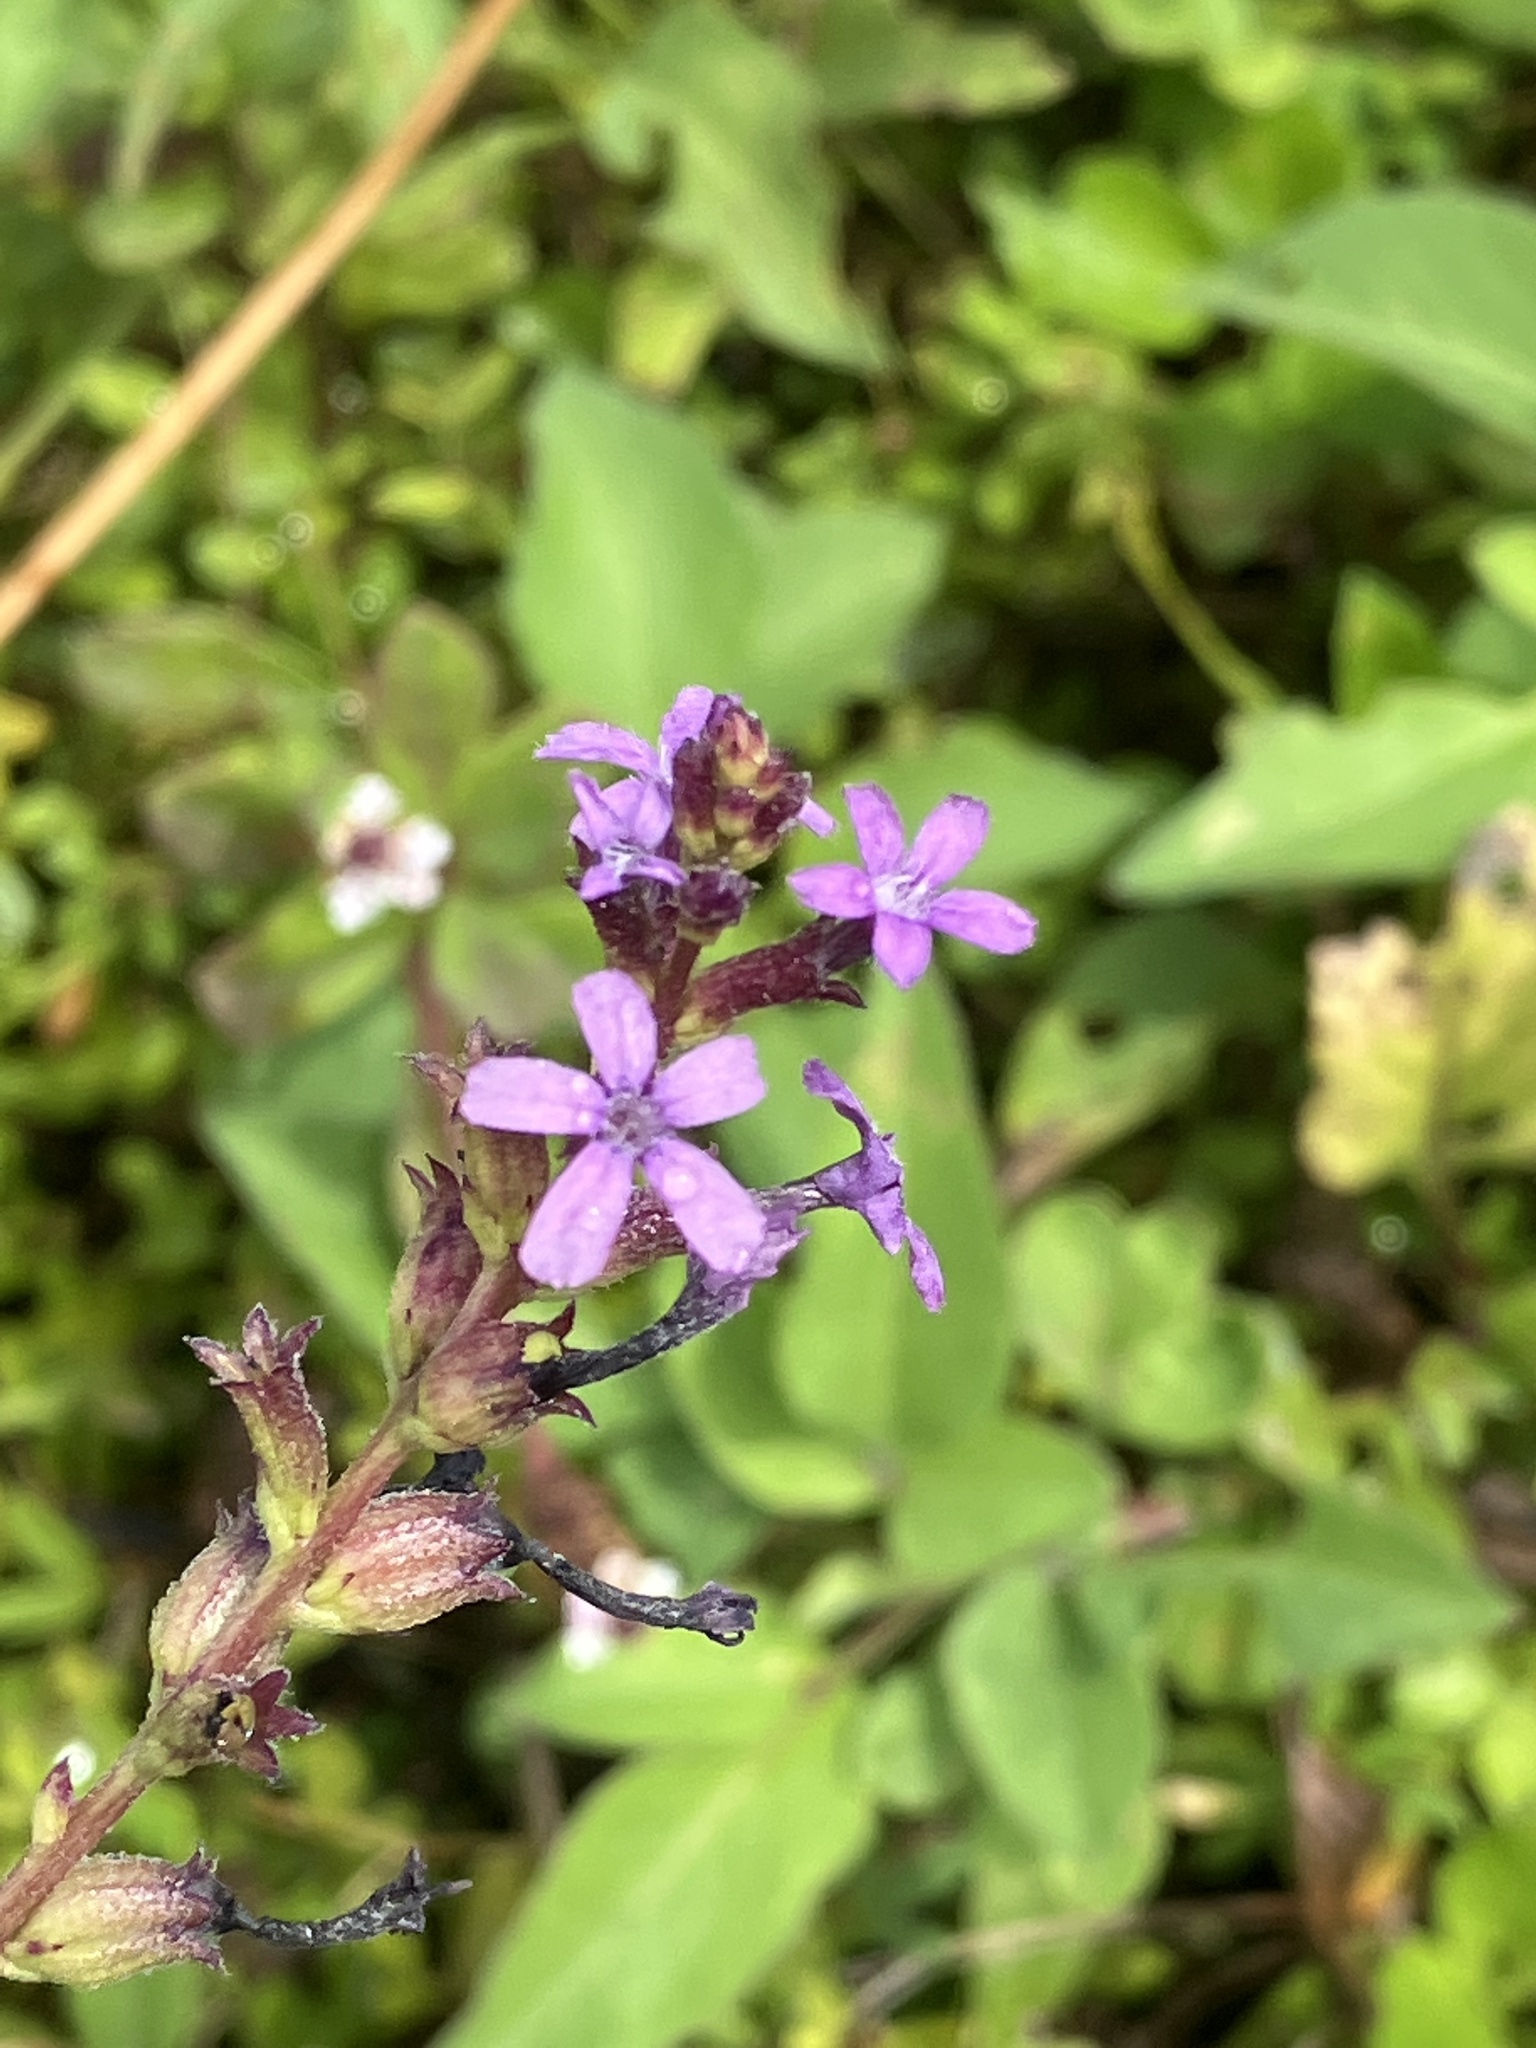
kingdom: Plantae
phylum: Tracheophyta
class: Magnoliopsida
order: Lamiales
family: Orobanchaceae
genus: Buchnera
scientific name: Buchnera hispida
